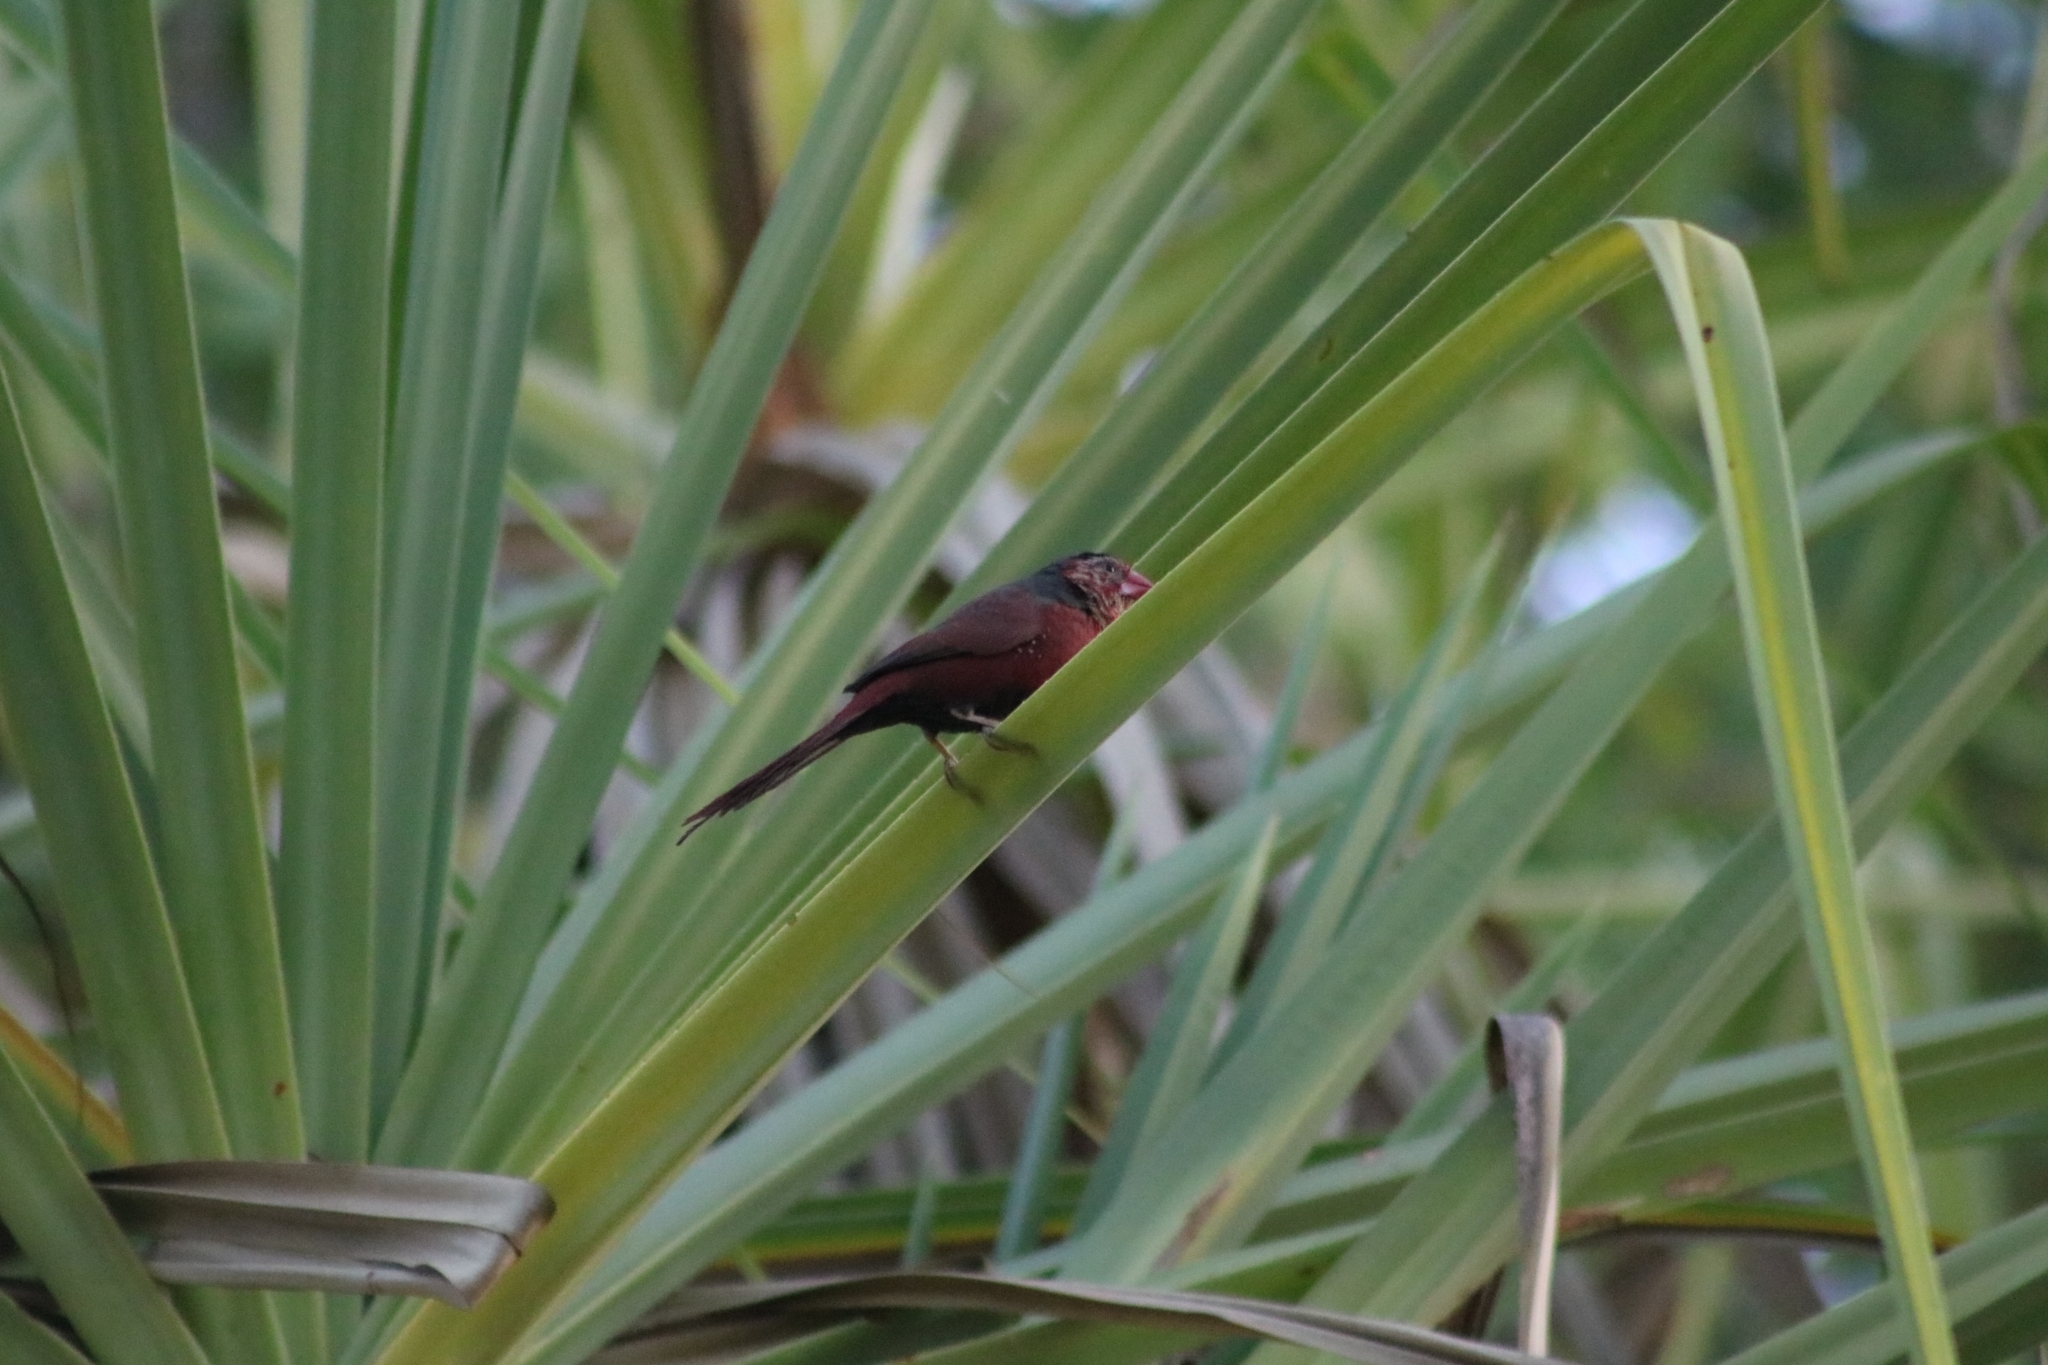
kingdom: Animalia
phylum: Chordata
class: Aves
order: Passeriformes
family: Estrildidae
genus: Neochmia
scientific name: Neochmia phaeton
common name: Crimson finch
